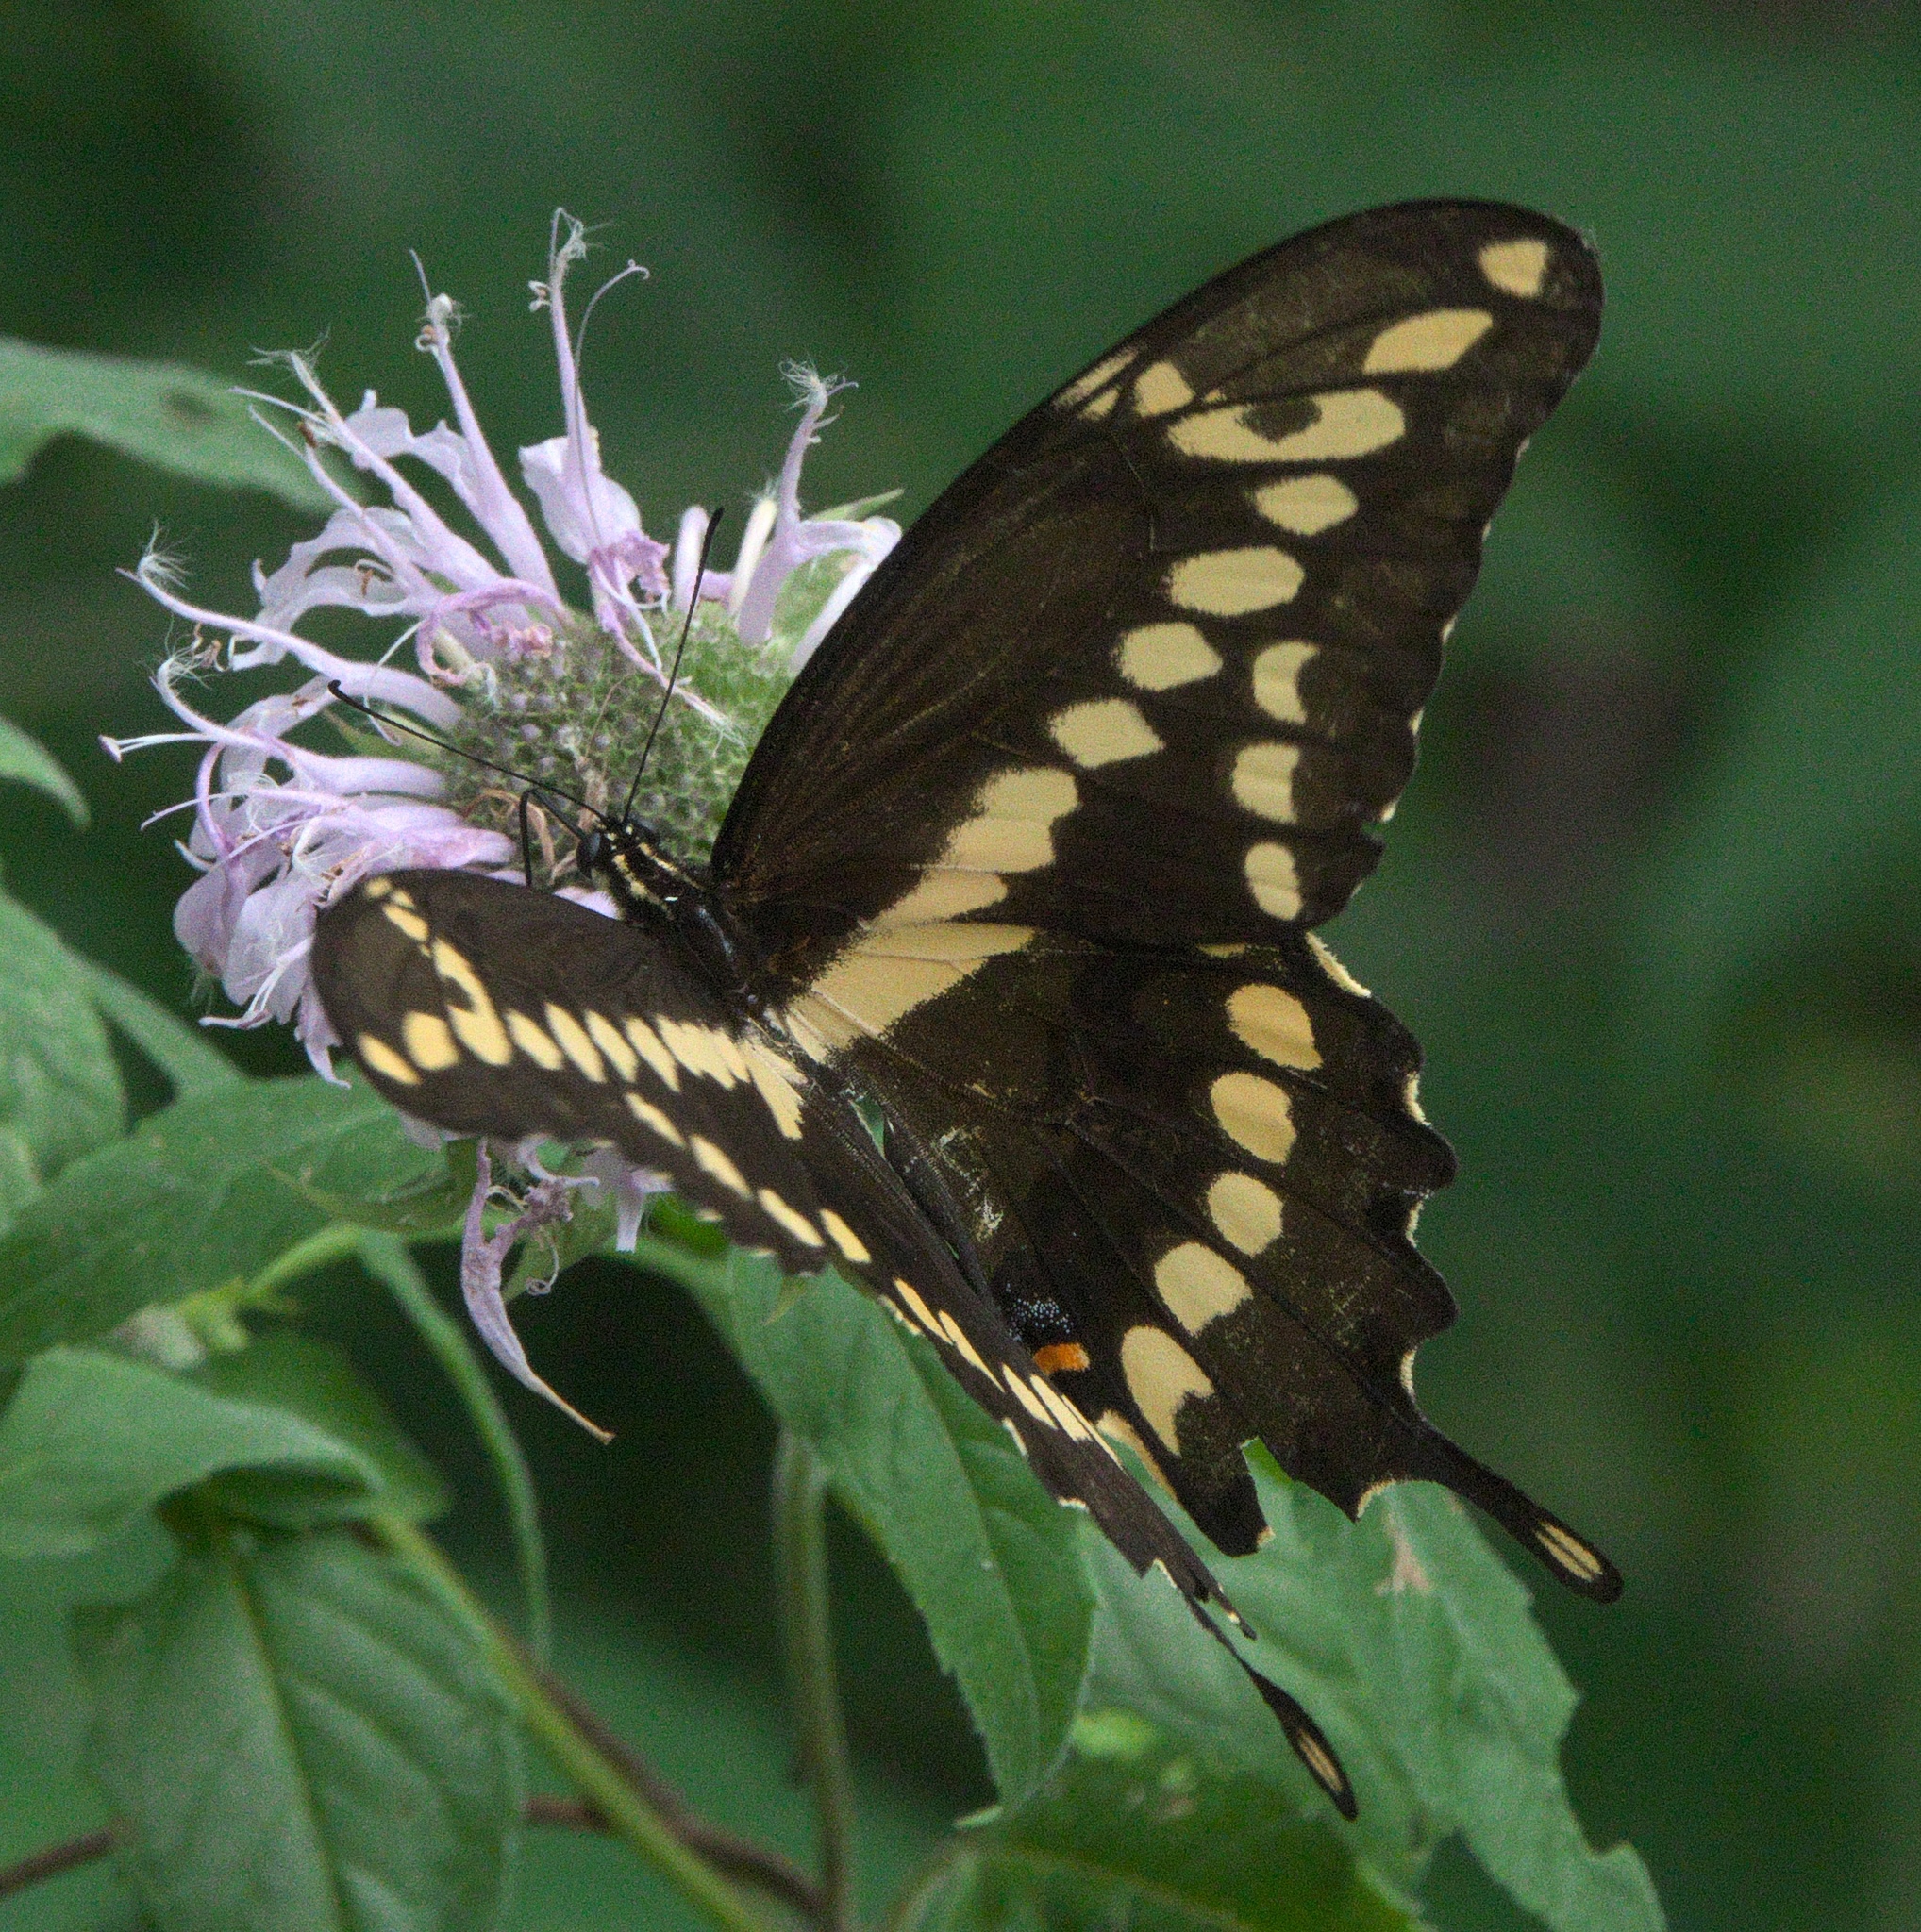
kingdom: Animalia
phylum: Arthropoda
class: Insecta
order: Lepidoptera
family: Papilionidae
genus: Papilio
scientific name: Papilio cresphontes
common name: Giant swallowtail
